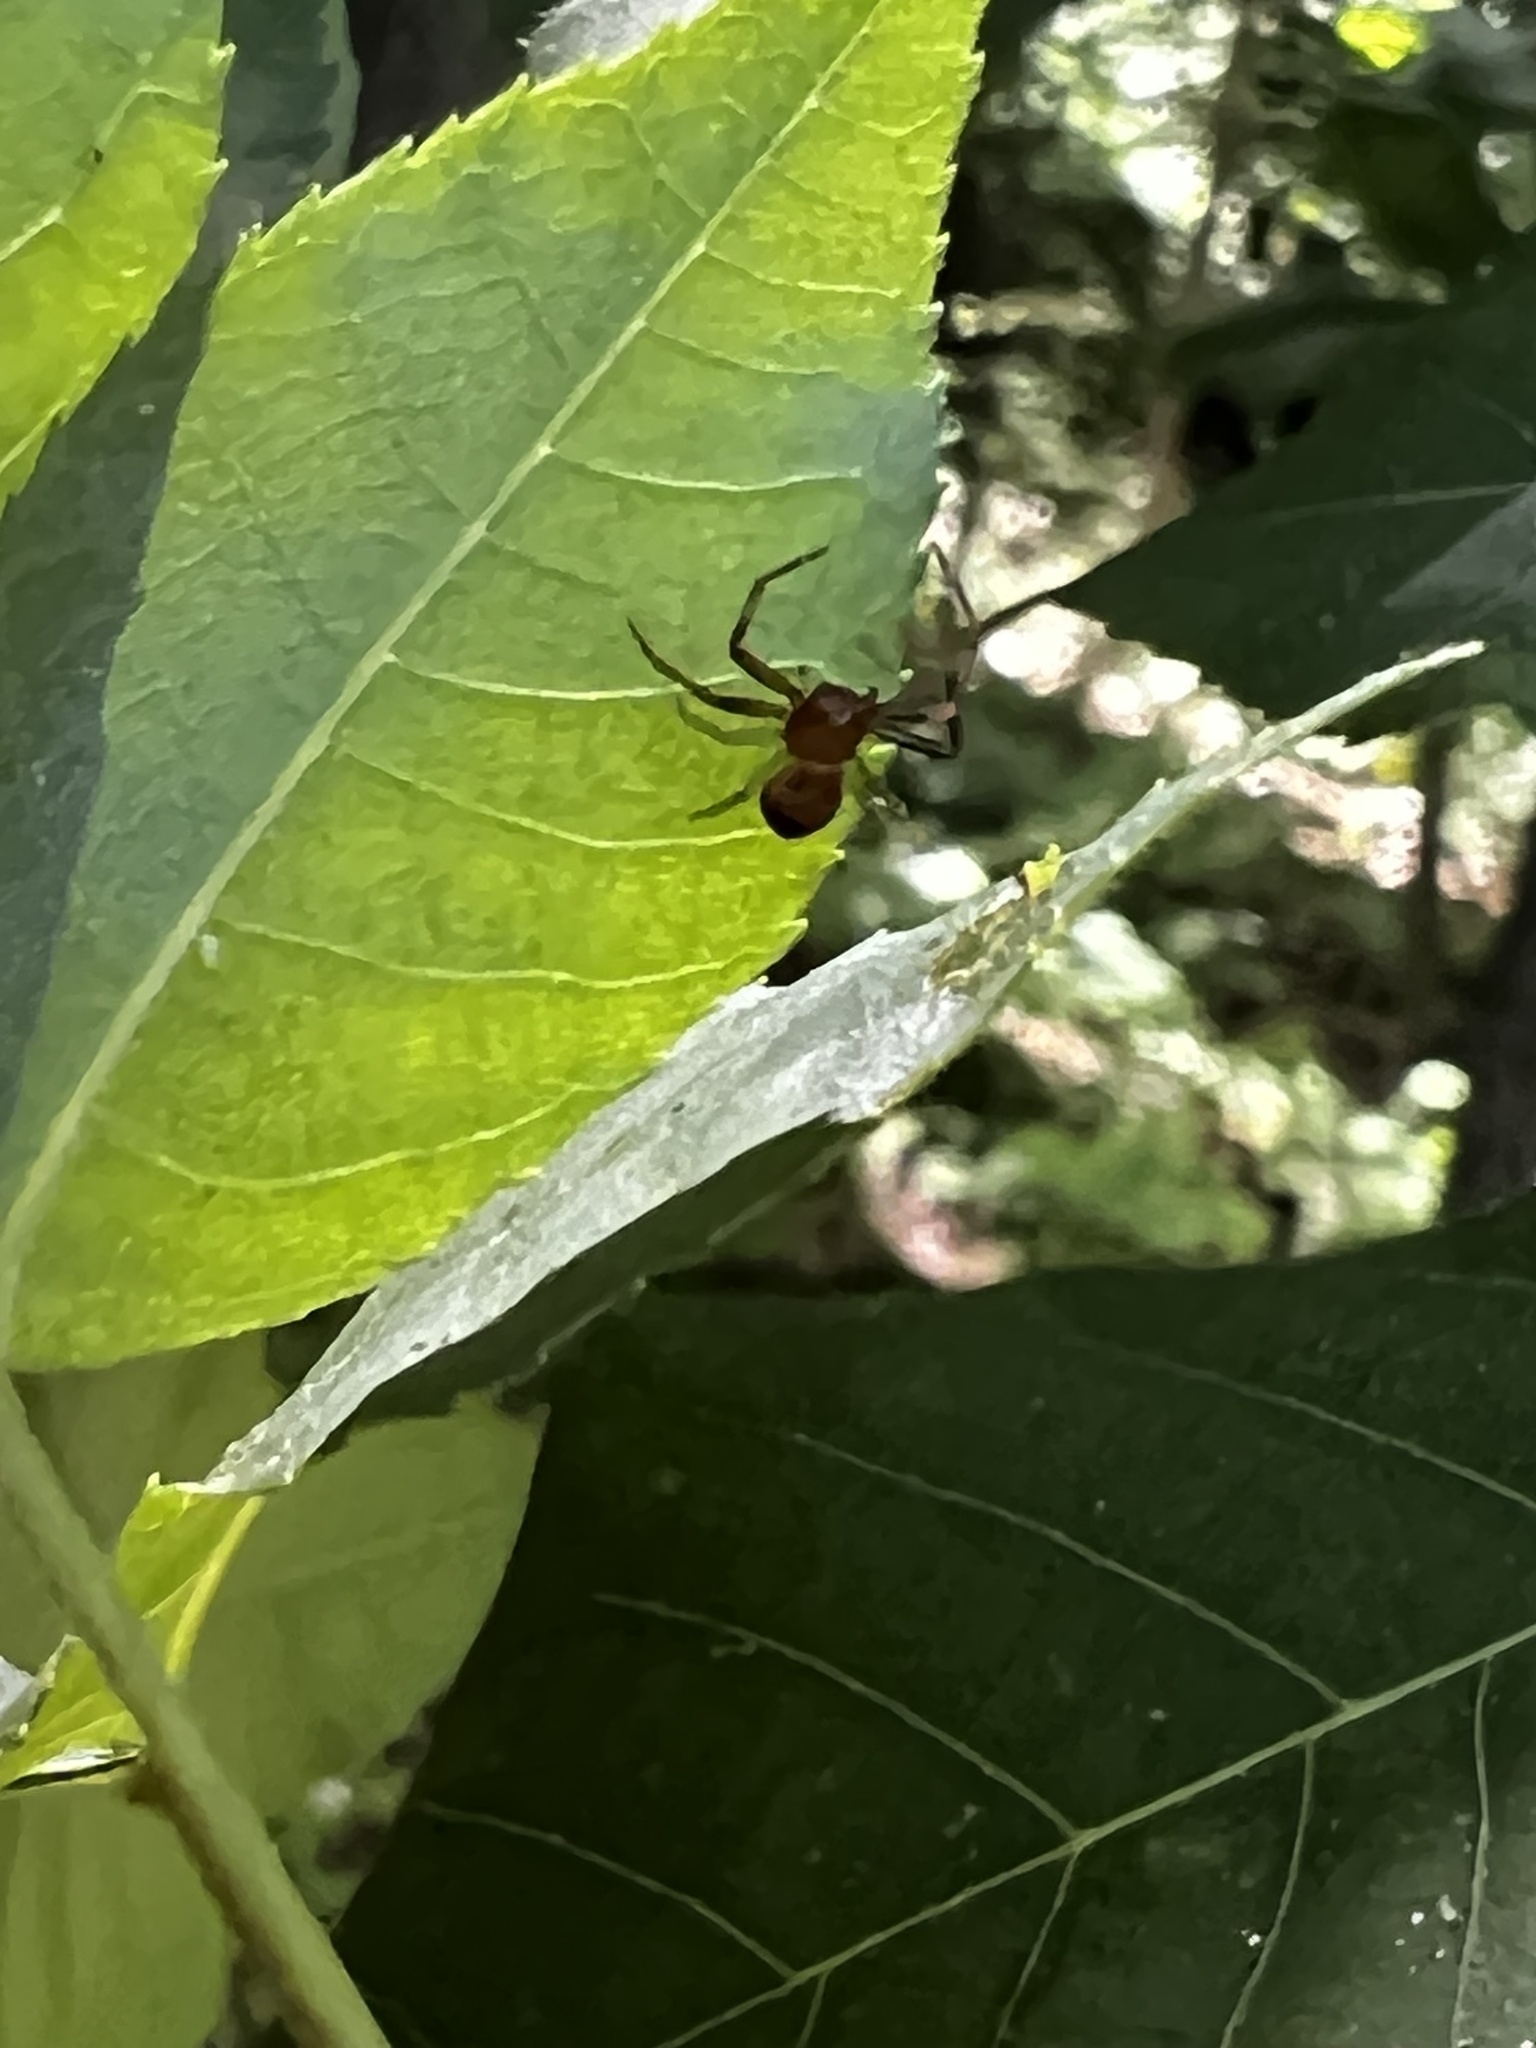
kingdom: Animalia
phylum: Arthropoda
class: Arachnida
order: Araneae
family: Thomisidae
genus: Synema
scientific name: Synema parvulum
